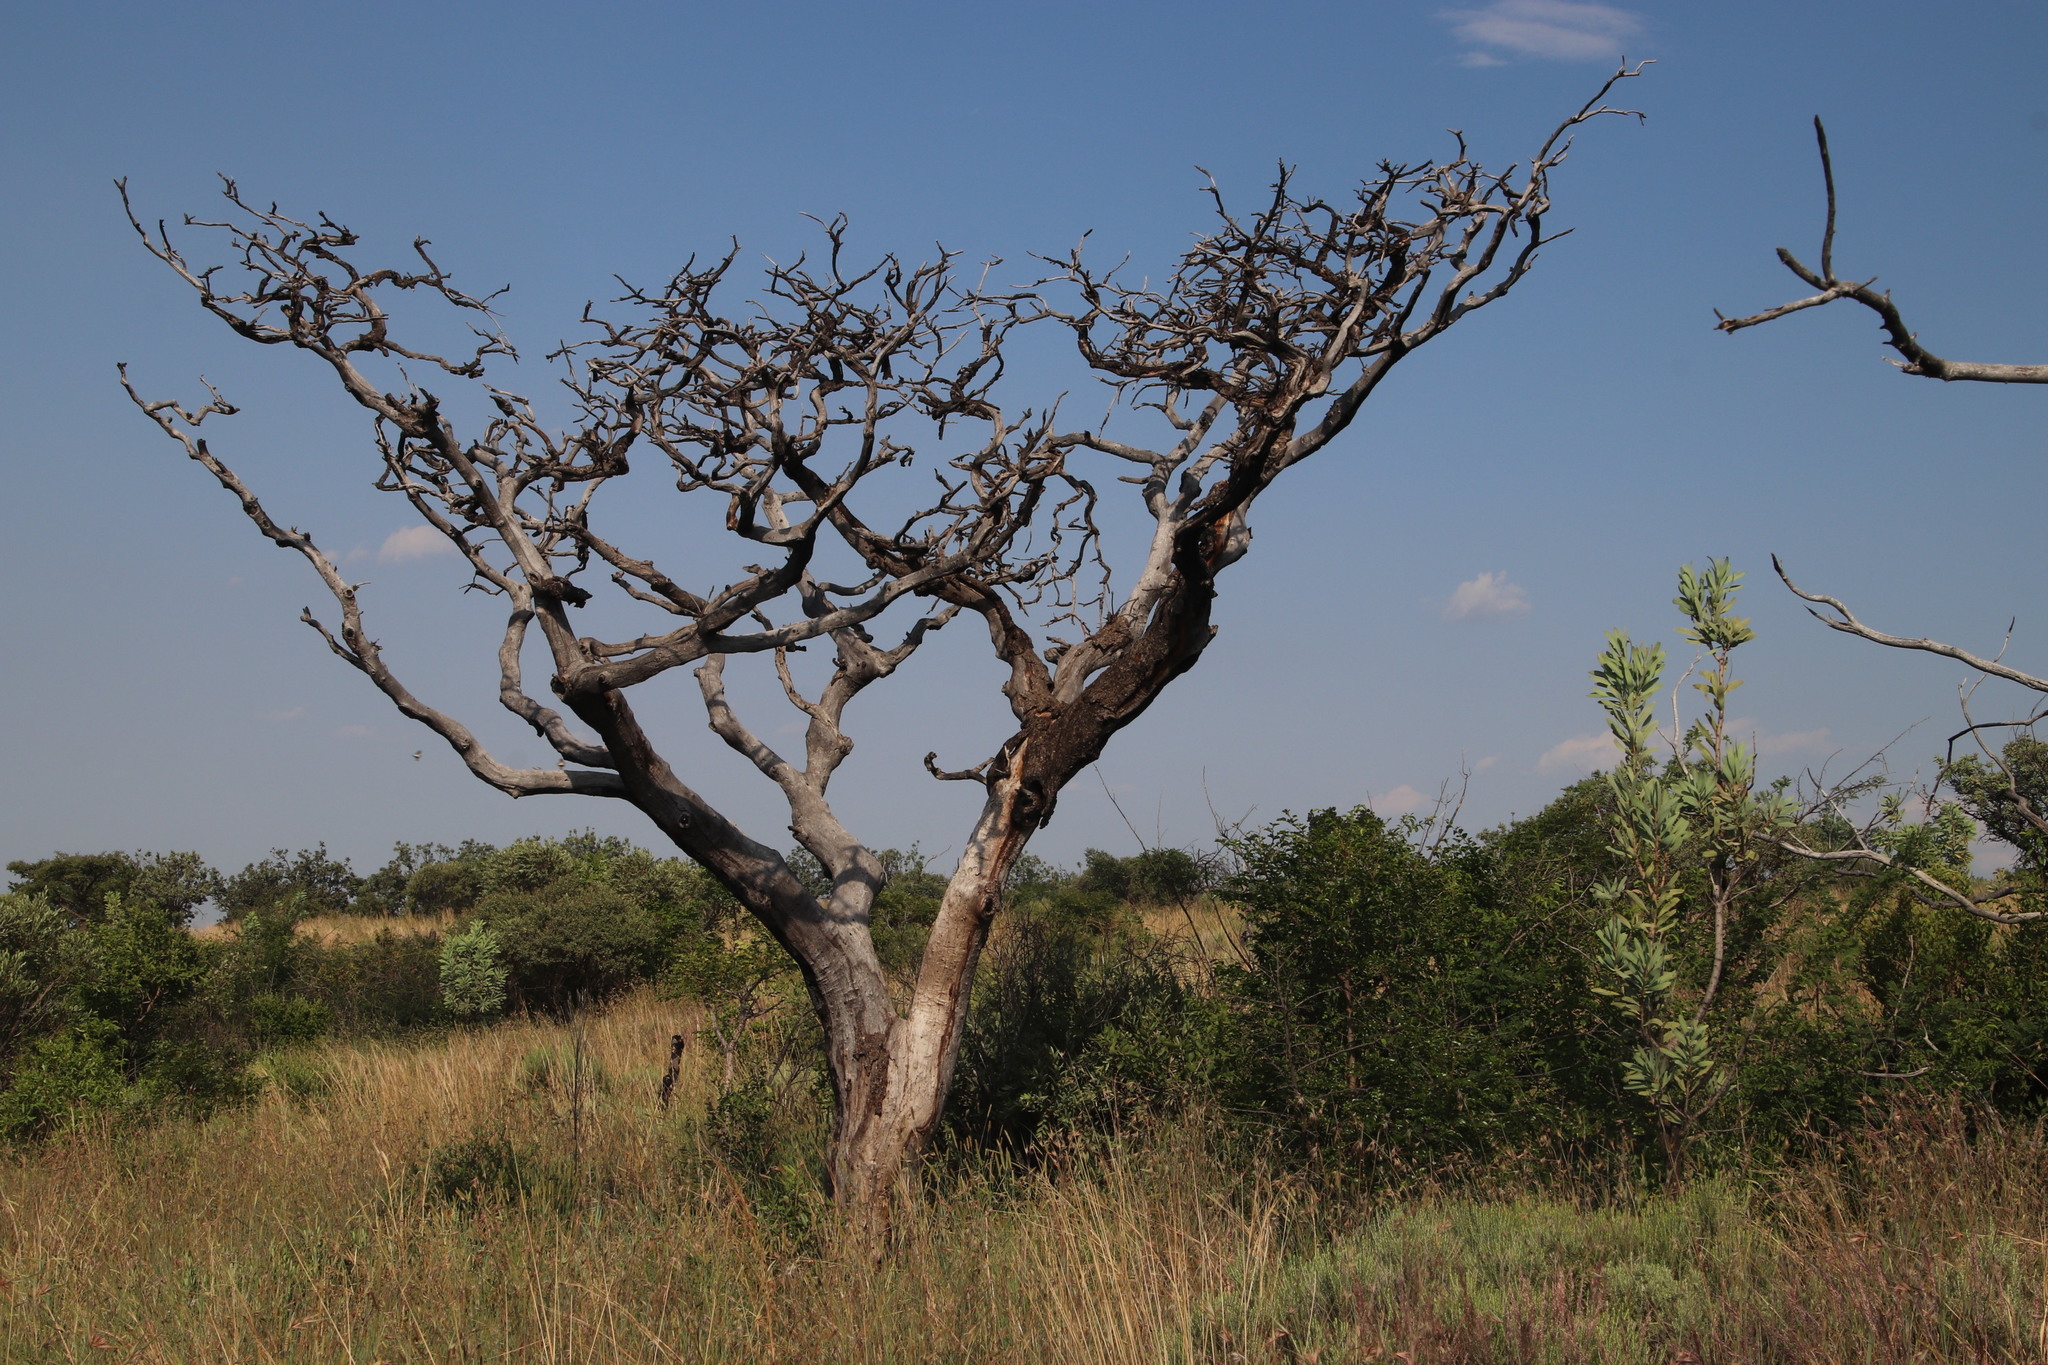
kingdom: Plantae
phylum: Tracheophyta
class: Magnoliopsida
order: Fabales
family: Fabaceae
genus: Burkea
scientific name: Burkea africana
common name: Mkalati tree
